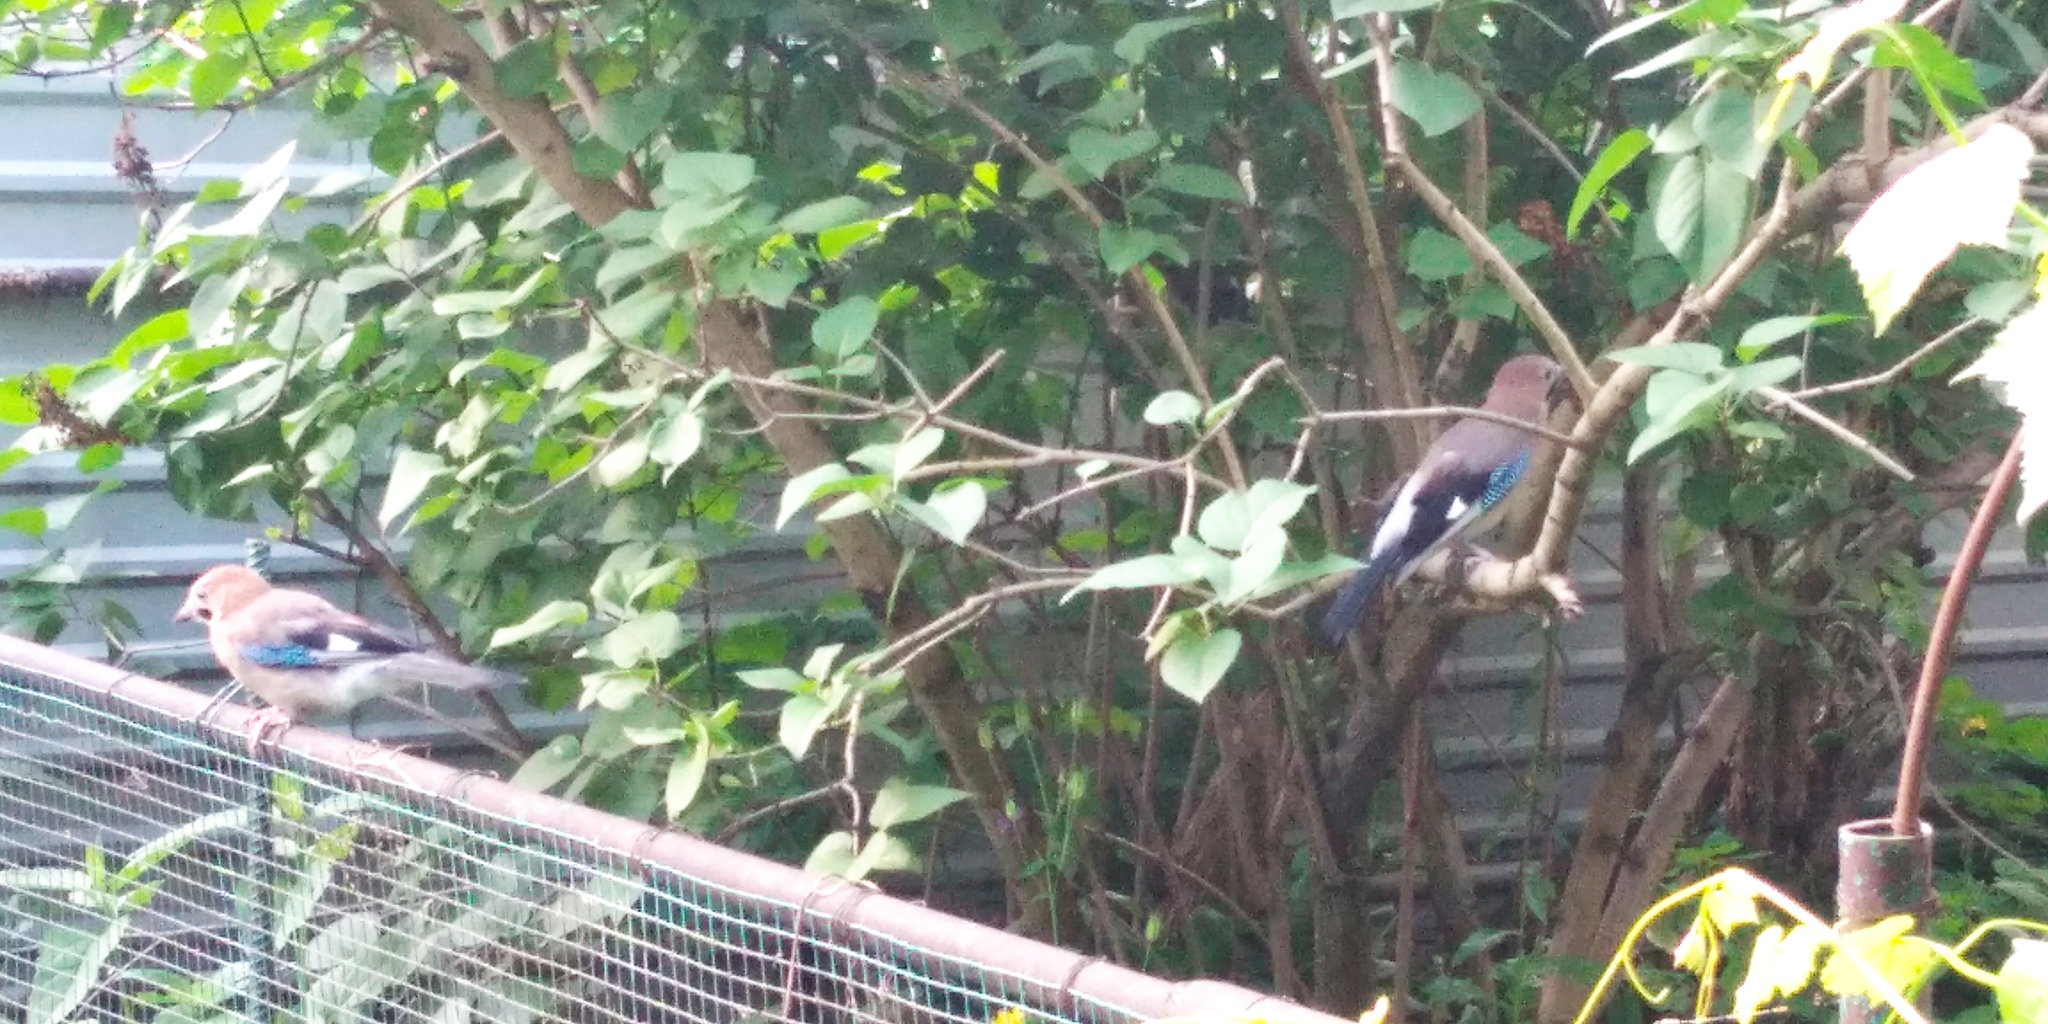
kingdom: Animalia
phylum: Chordata
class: Aves
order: Passeriformes
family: Corvidae
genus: Garrulus
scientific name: Garrulus glandarius
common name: Eurasian jay
